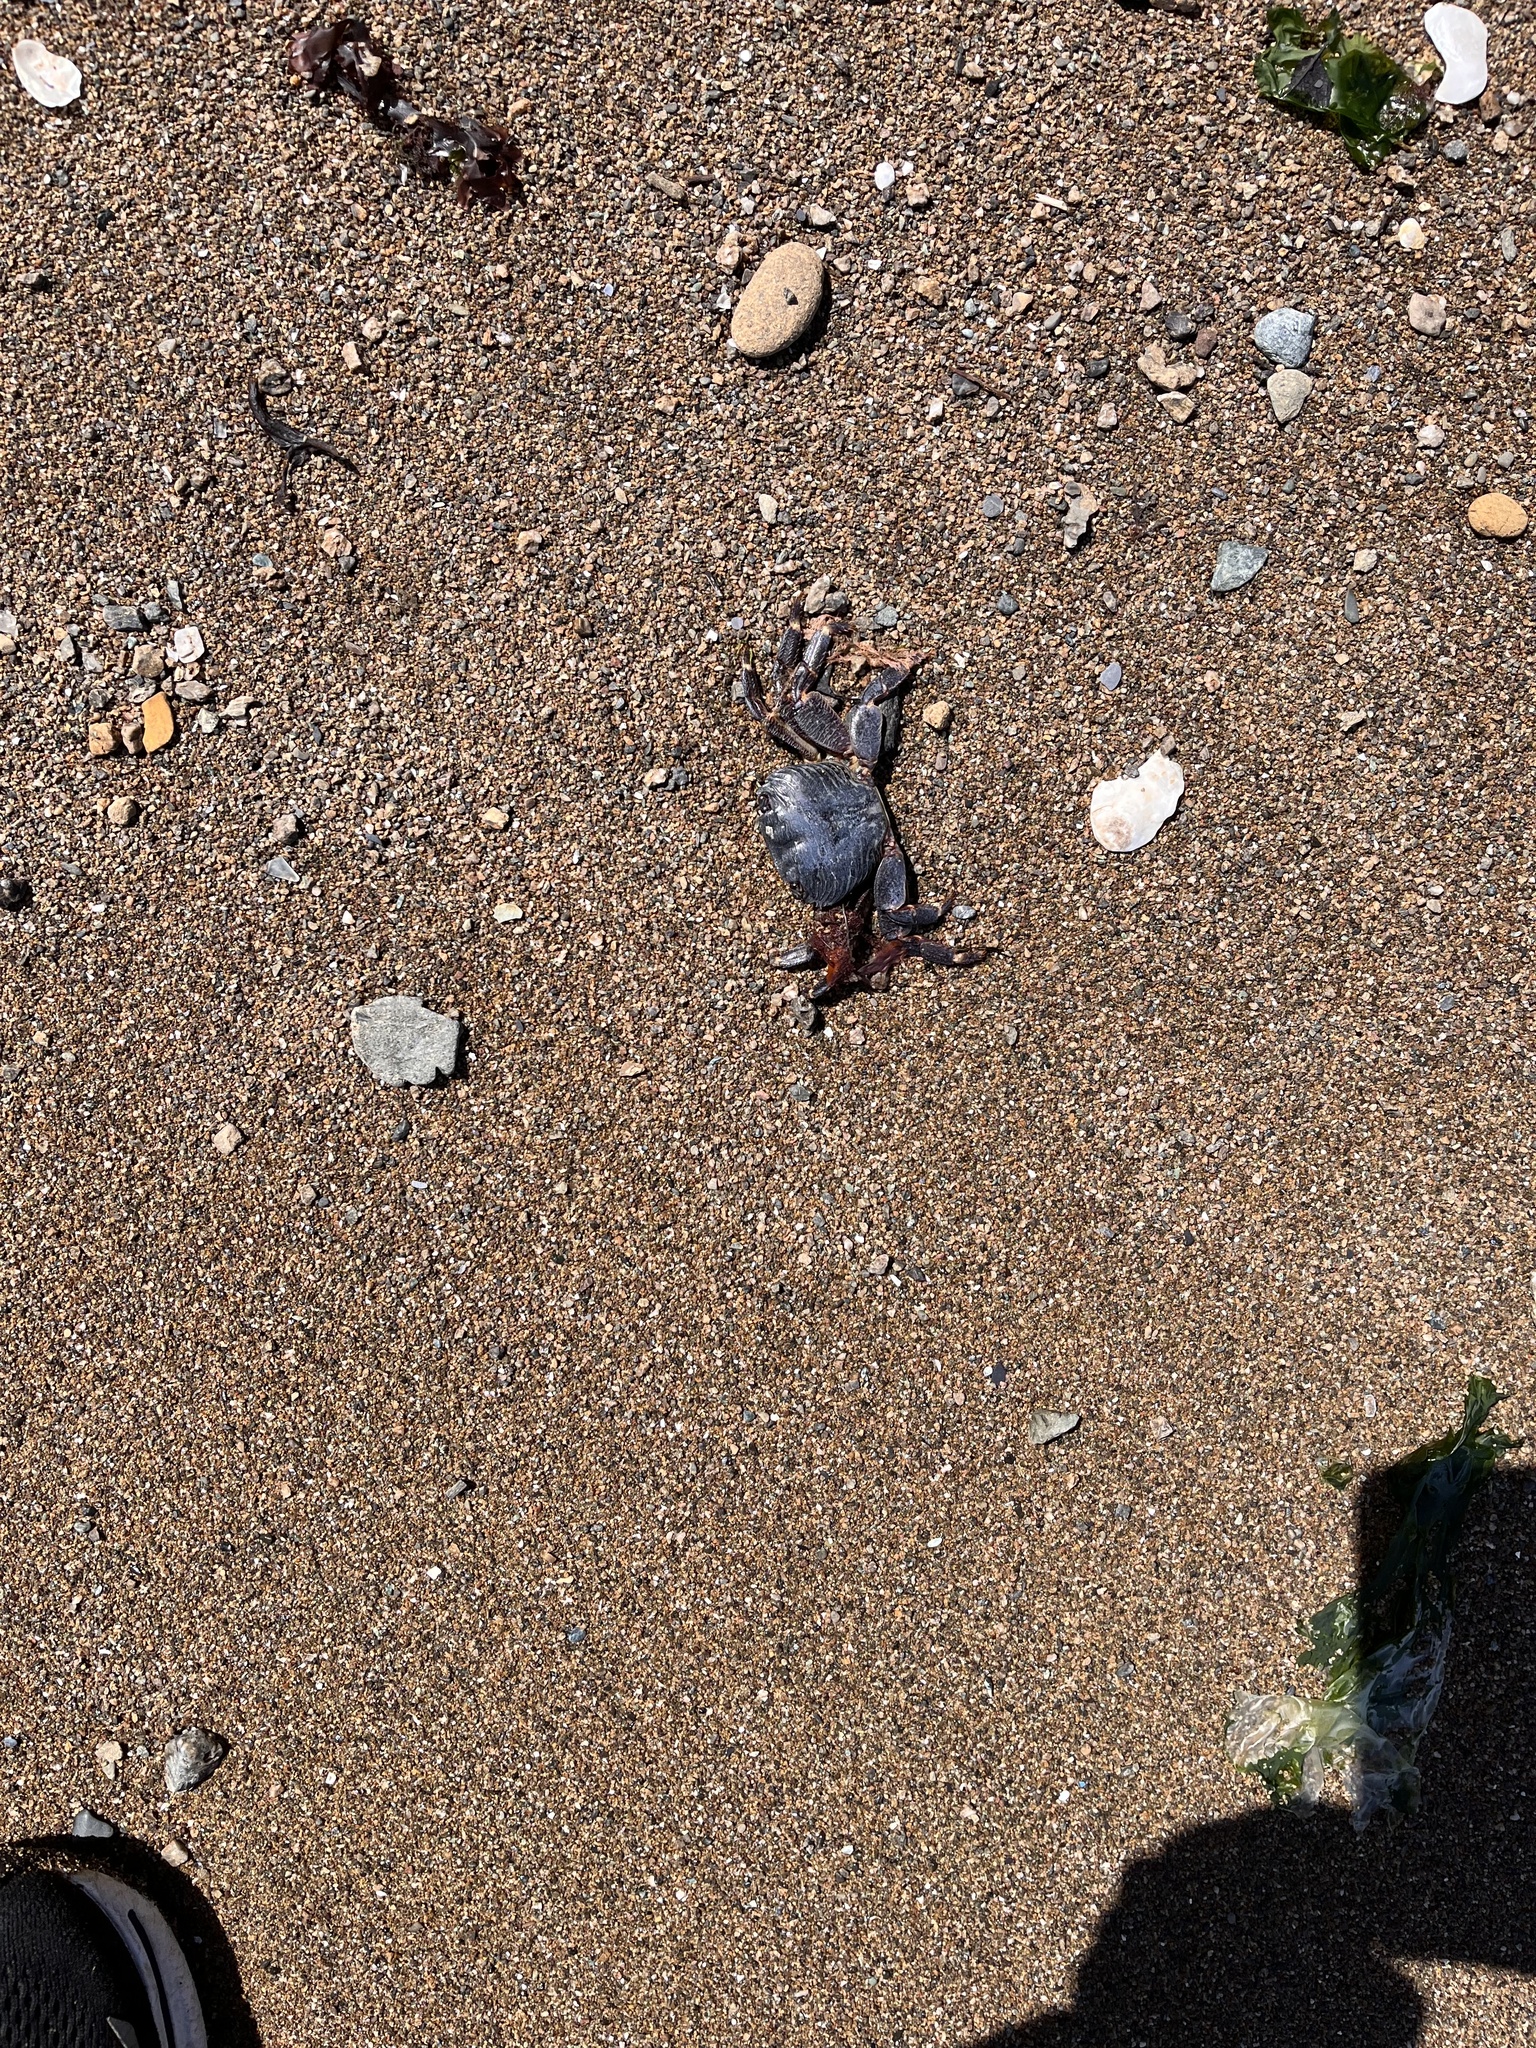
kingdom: Animalia
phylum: Arthropoda
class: Malacostraca
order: Decapoda
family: Grapsidae
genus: Pachygrapsus
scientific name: Pachygrapsus crassipes
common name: Striped shore crab
